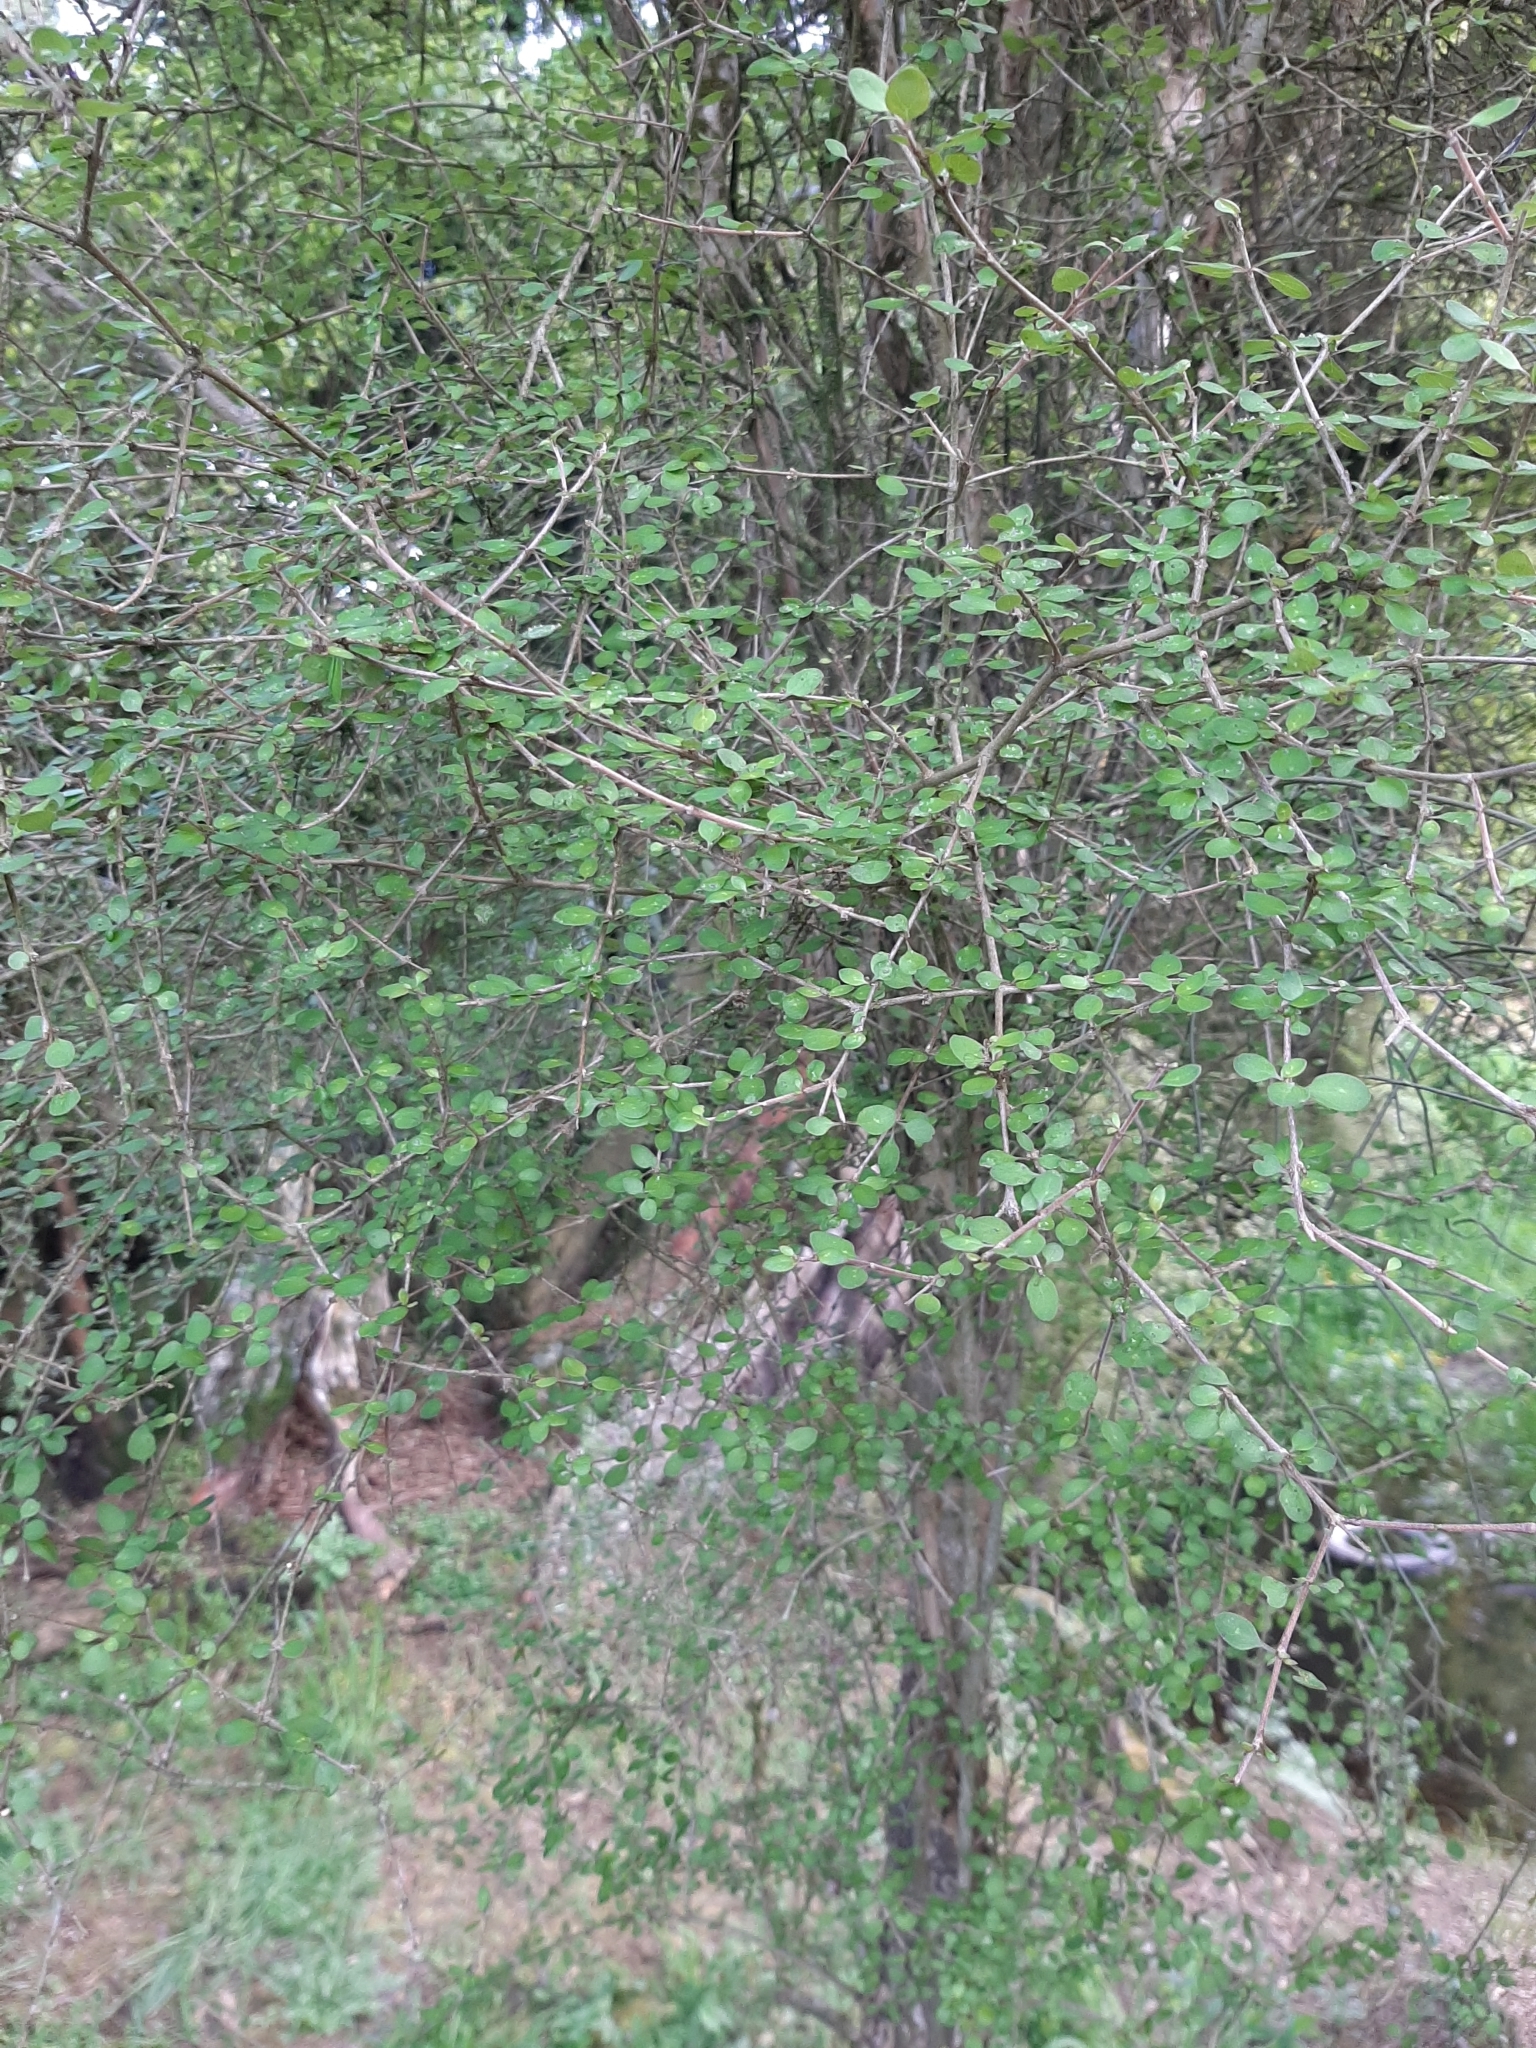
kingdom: Plantae
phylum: Tracheophyta
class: Magnoliopsida
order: Gentianales
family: Rubiaceae
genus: Coprosma
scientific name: Coprosma virescens
